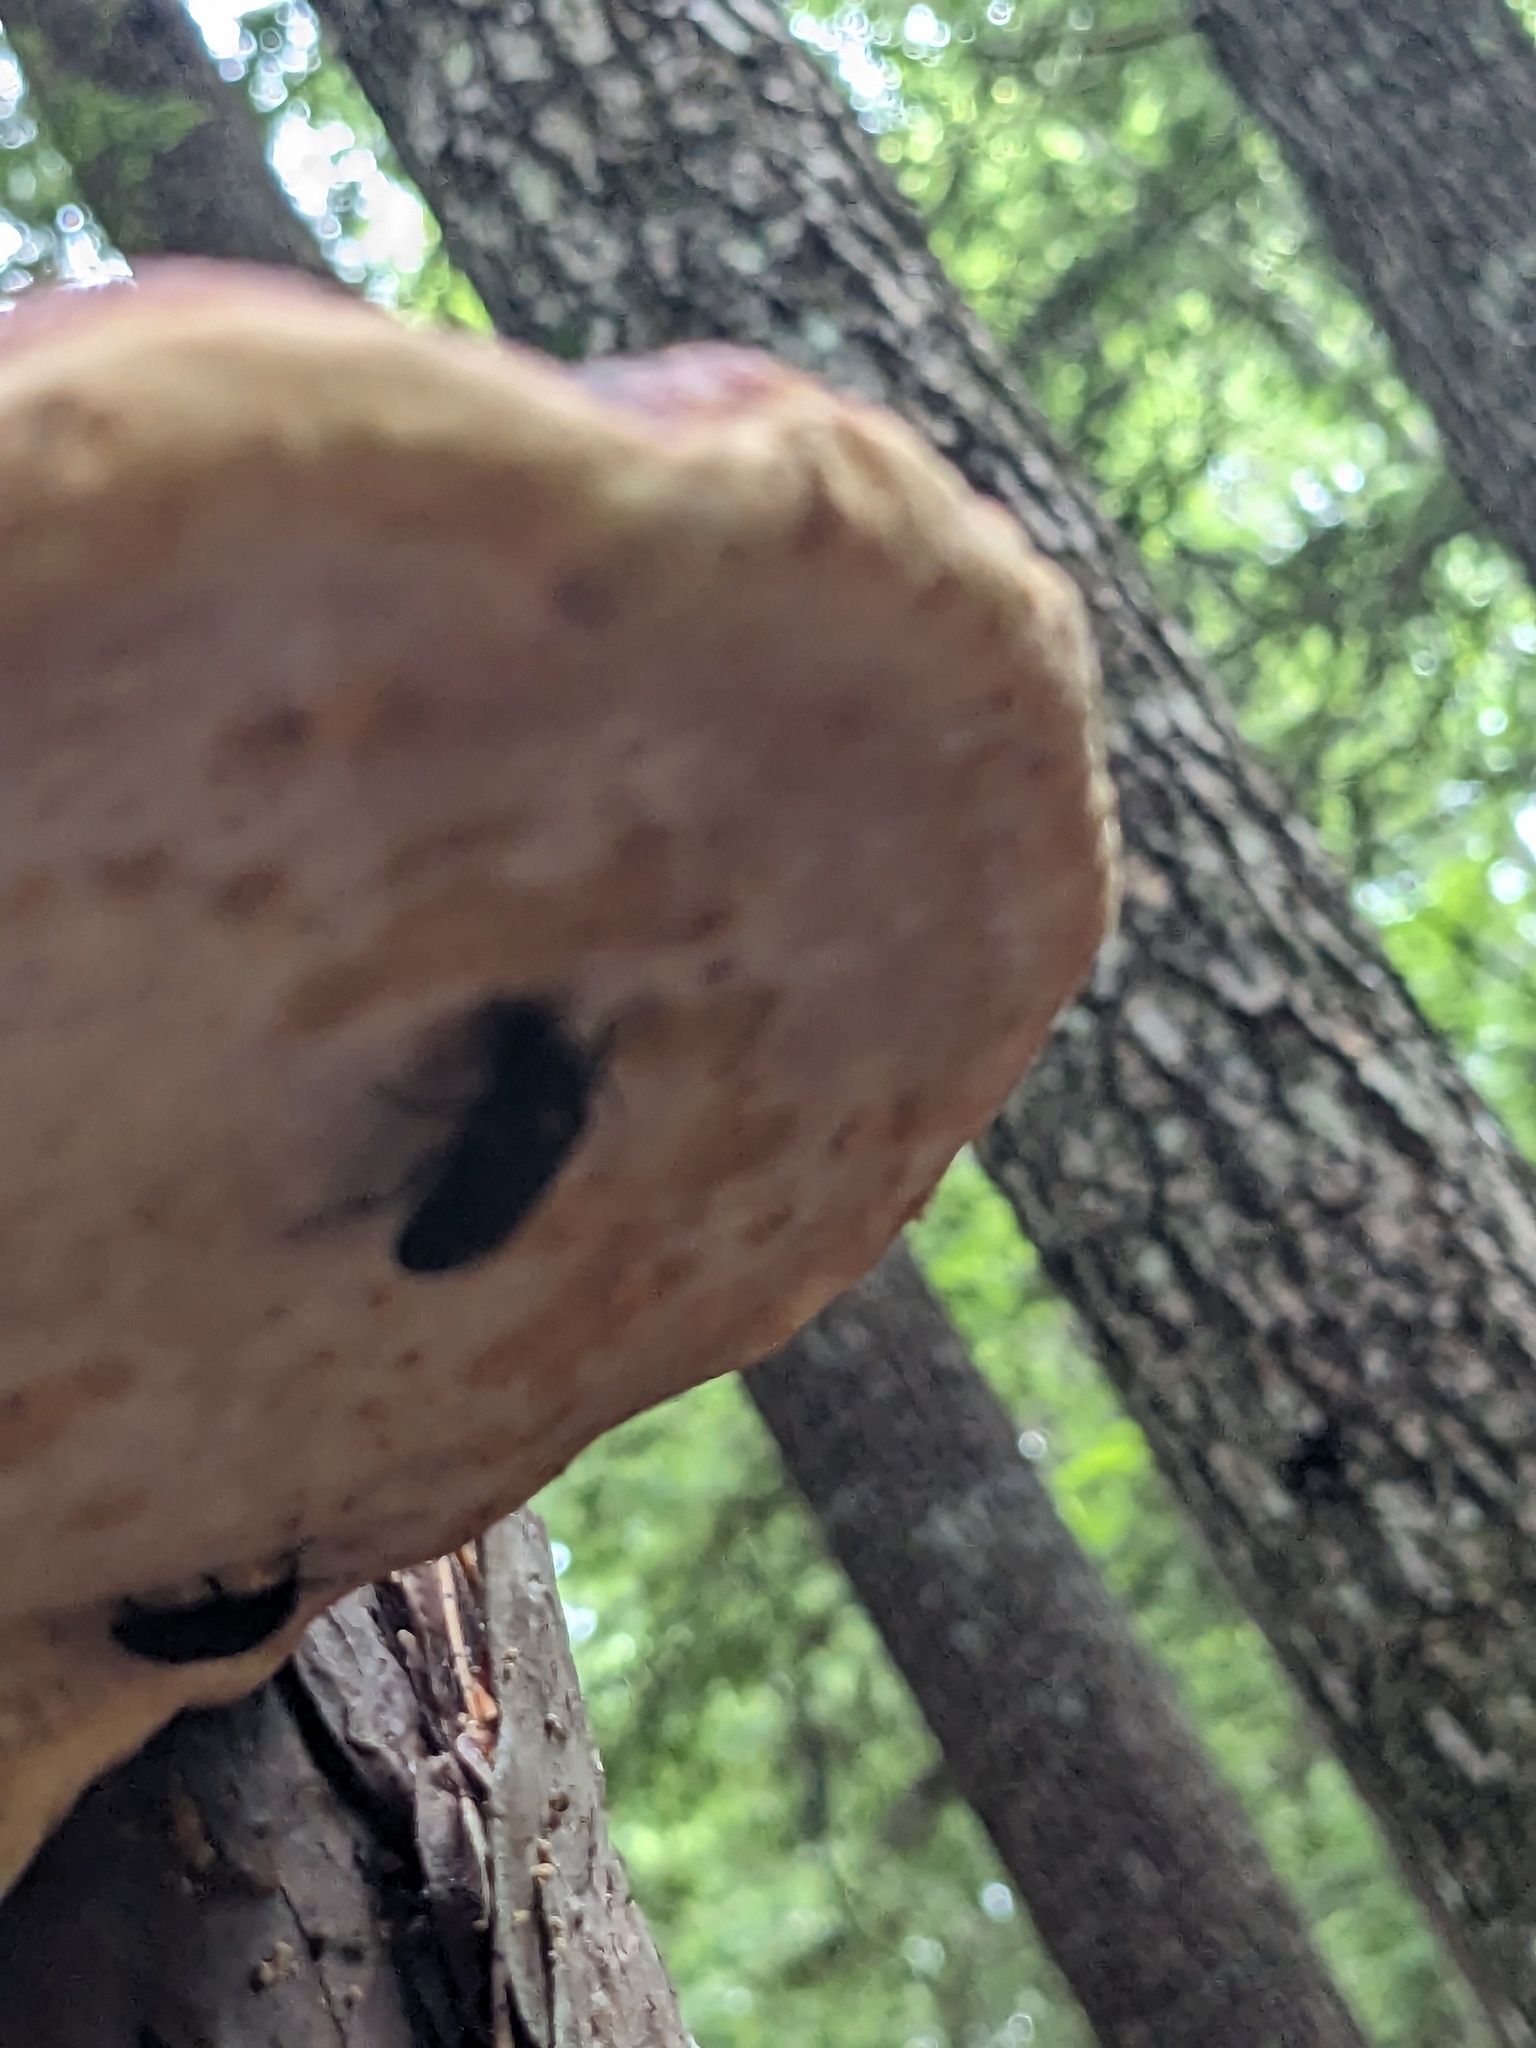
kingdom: Animalia
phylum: Arthropoda
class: Insecta
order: Coleoptera
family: Tetratomidae
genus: Penthe
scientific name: Penthe obliquata
